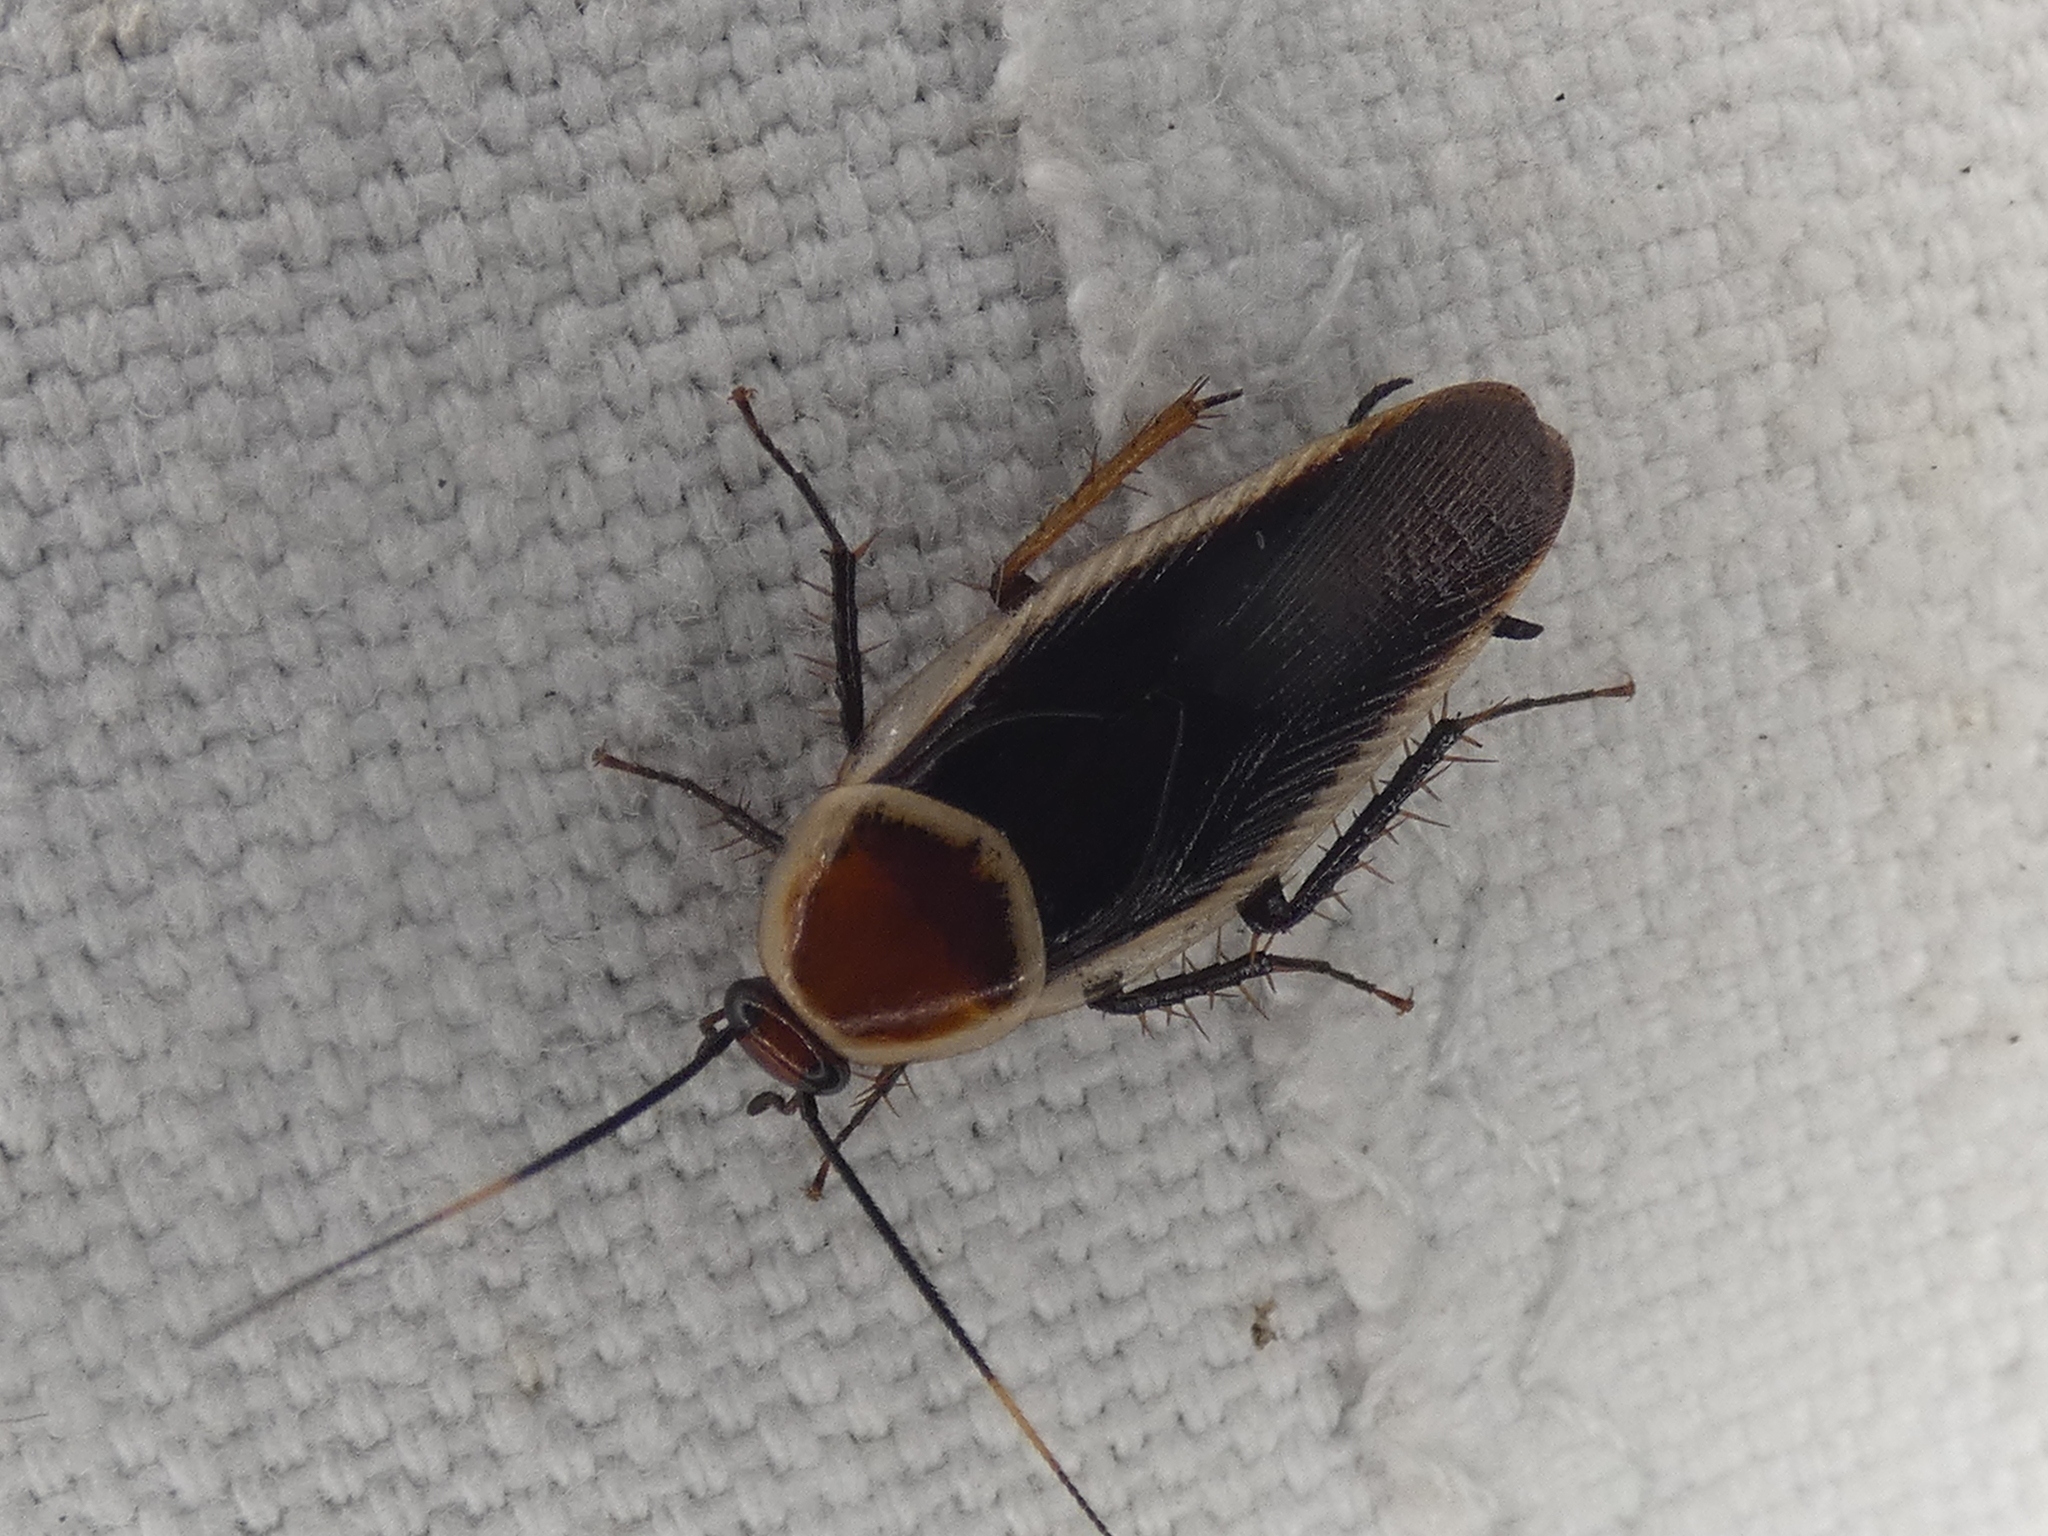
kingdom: Animalia
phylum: Arthropoda
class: Insecta
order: Blattodea
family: Ectobiidae
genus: Pseudomops
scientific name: Pseudomops septentrionalis
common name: Pale-bordered field cockroach
